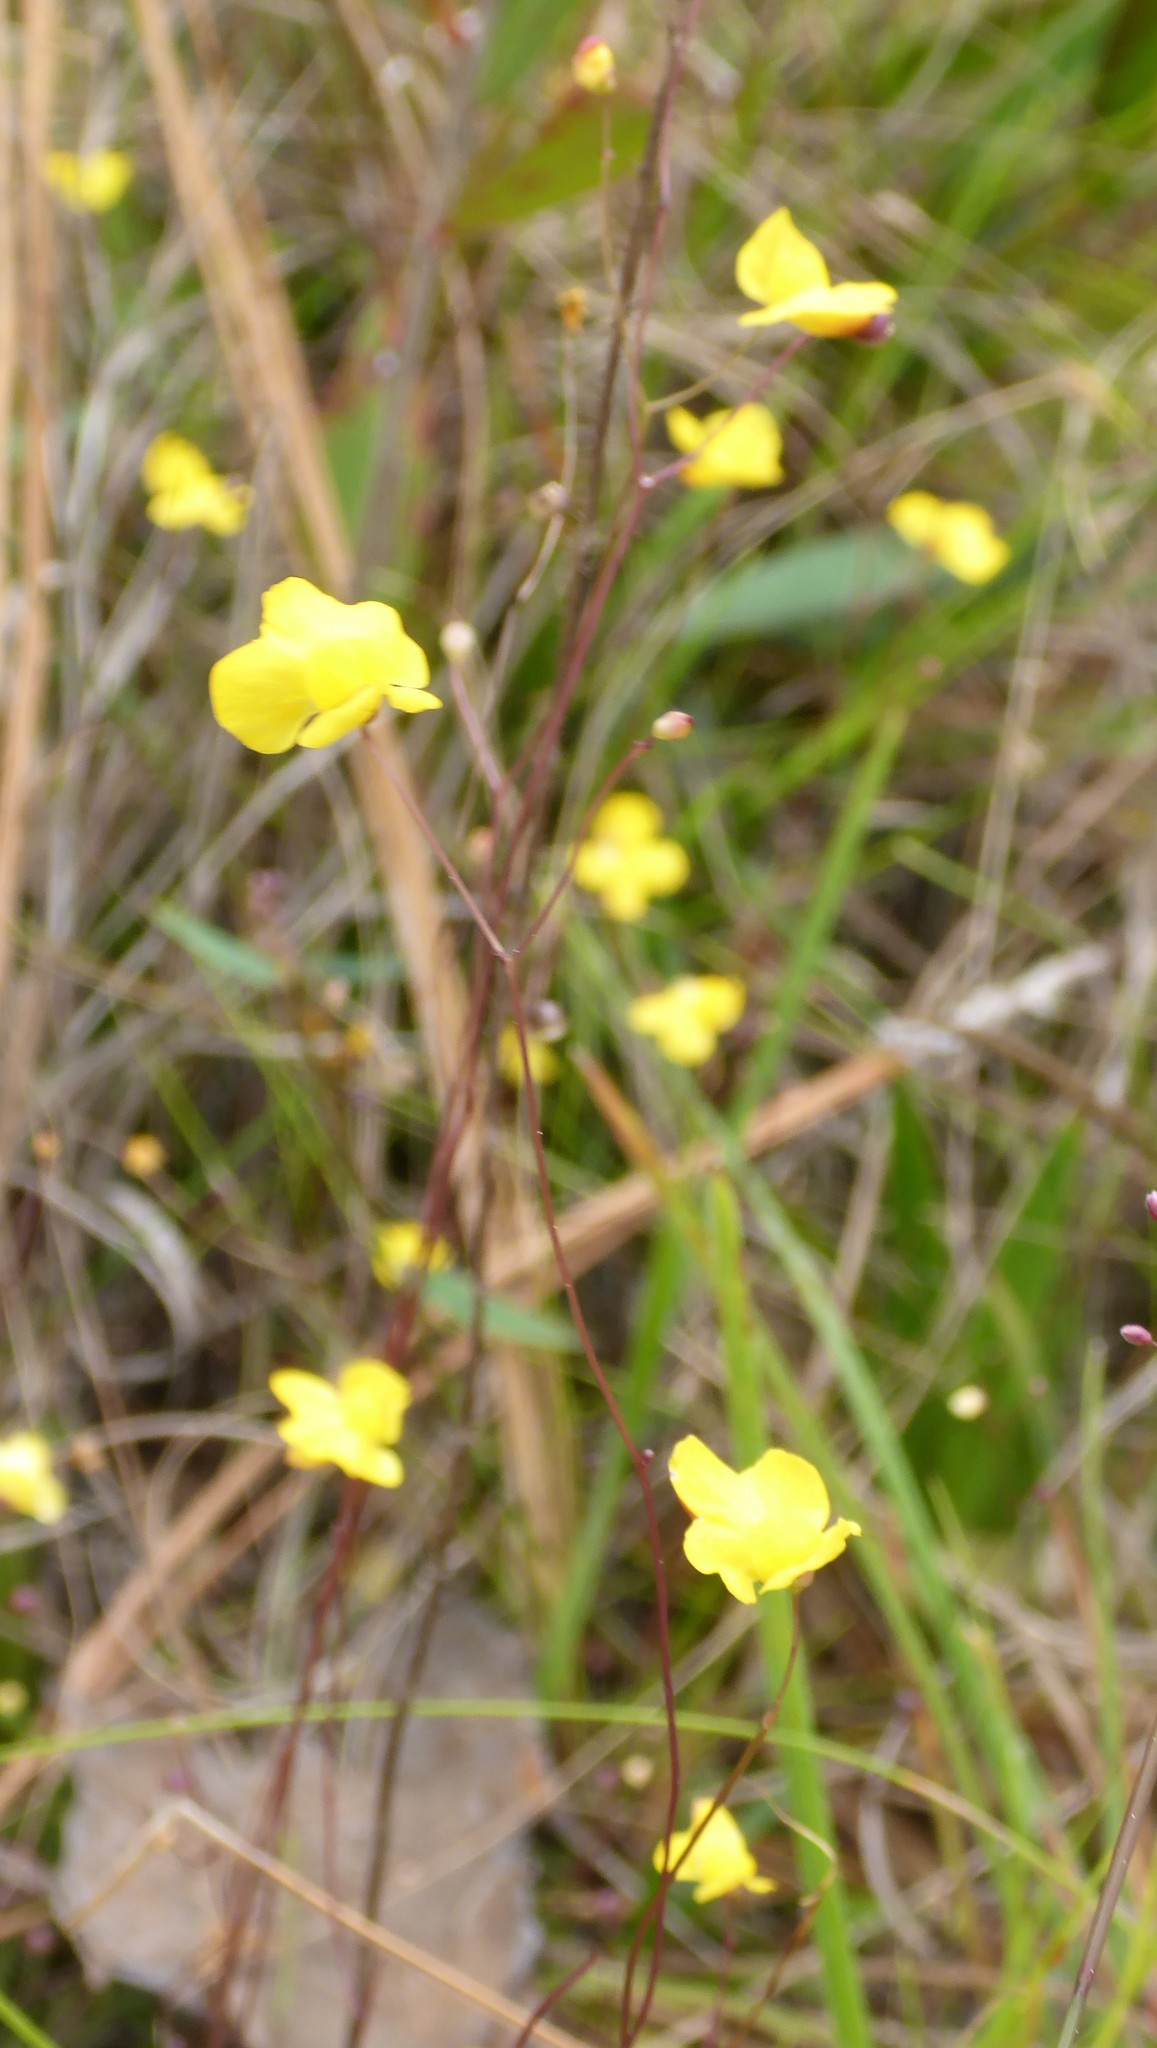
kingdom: Plantae
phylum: Tracheophyta
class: Magnoliopsida
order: Lamiales
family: Lentibulariaceae
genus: Utricularia
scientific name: Utricularia subulata
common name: Tiny bladderwort
